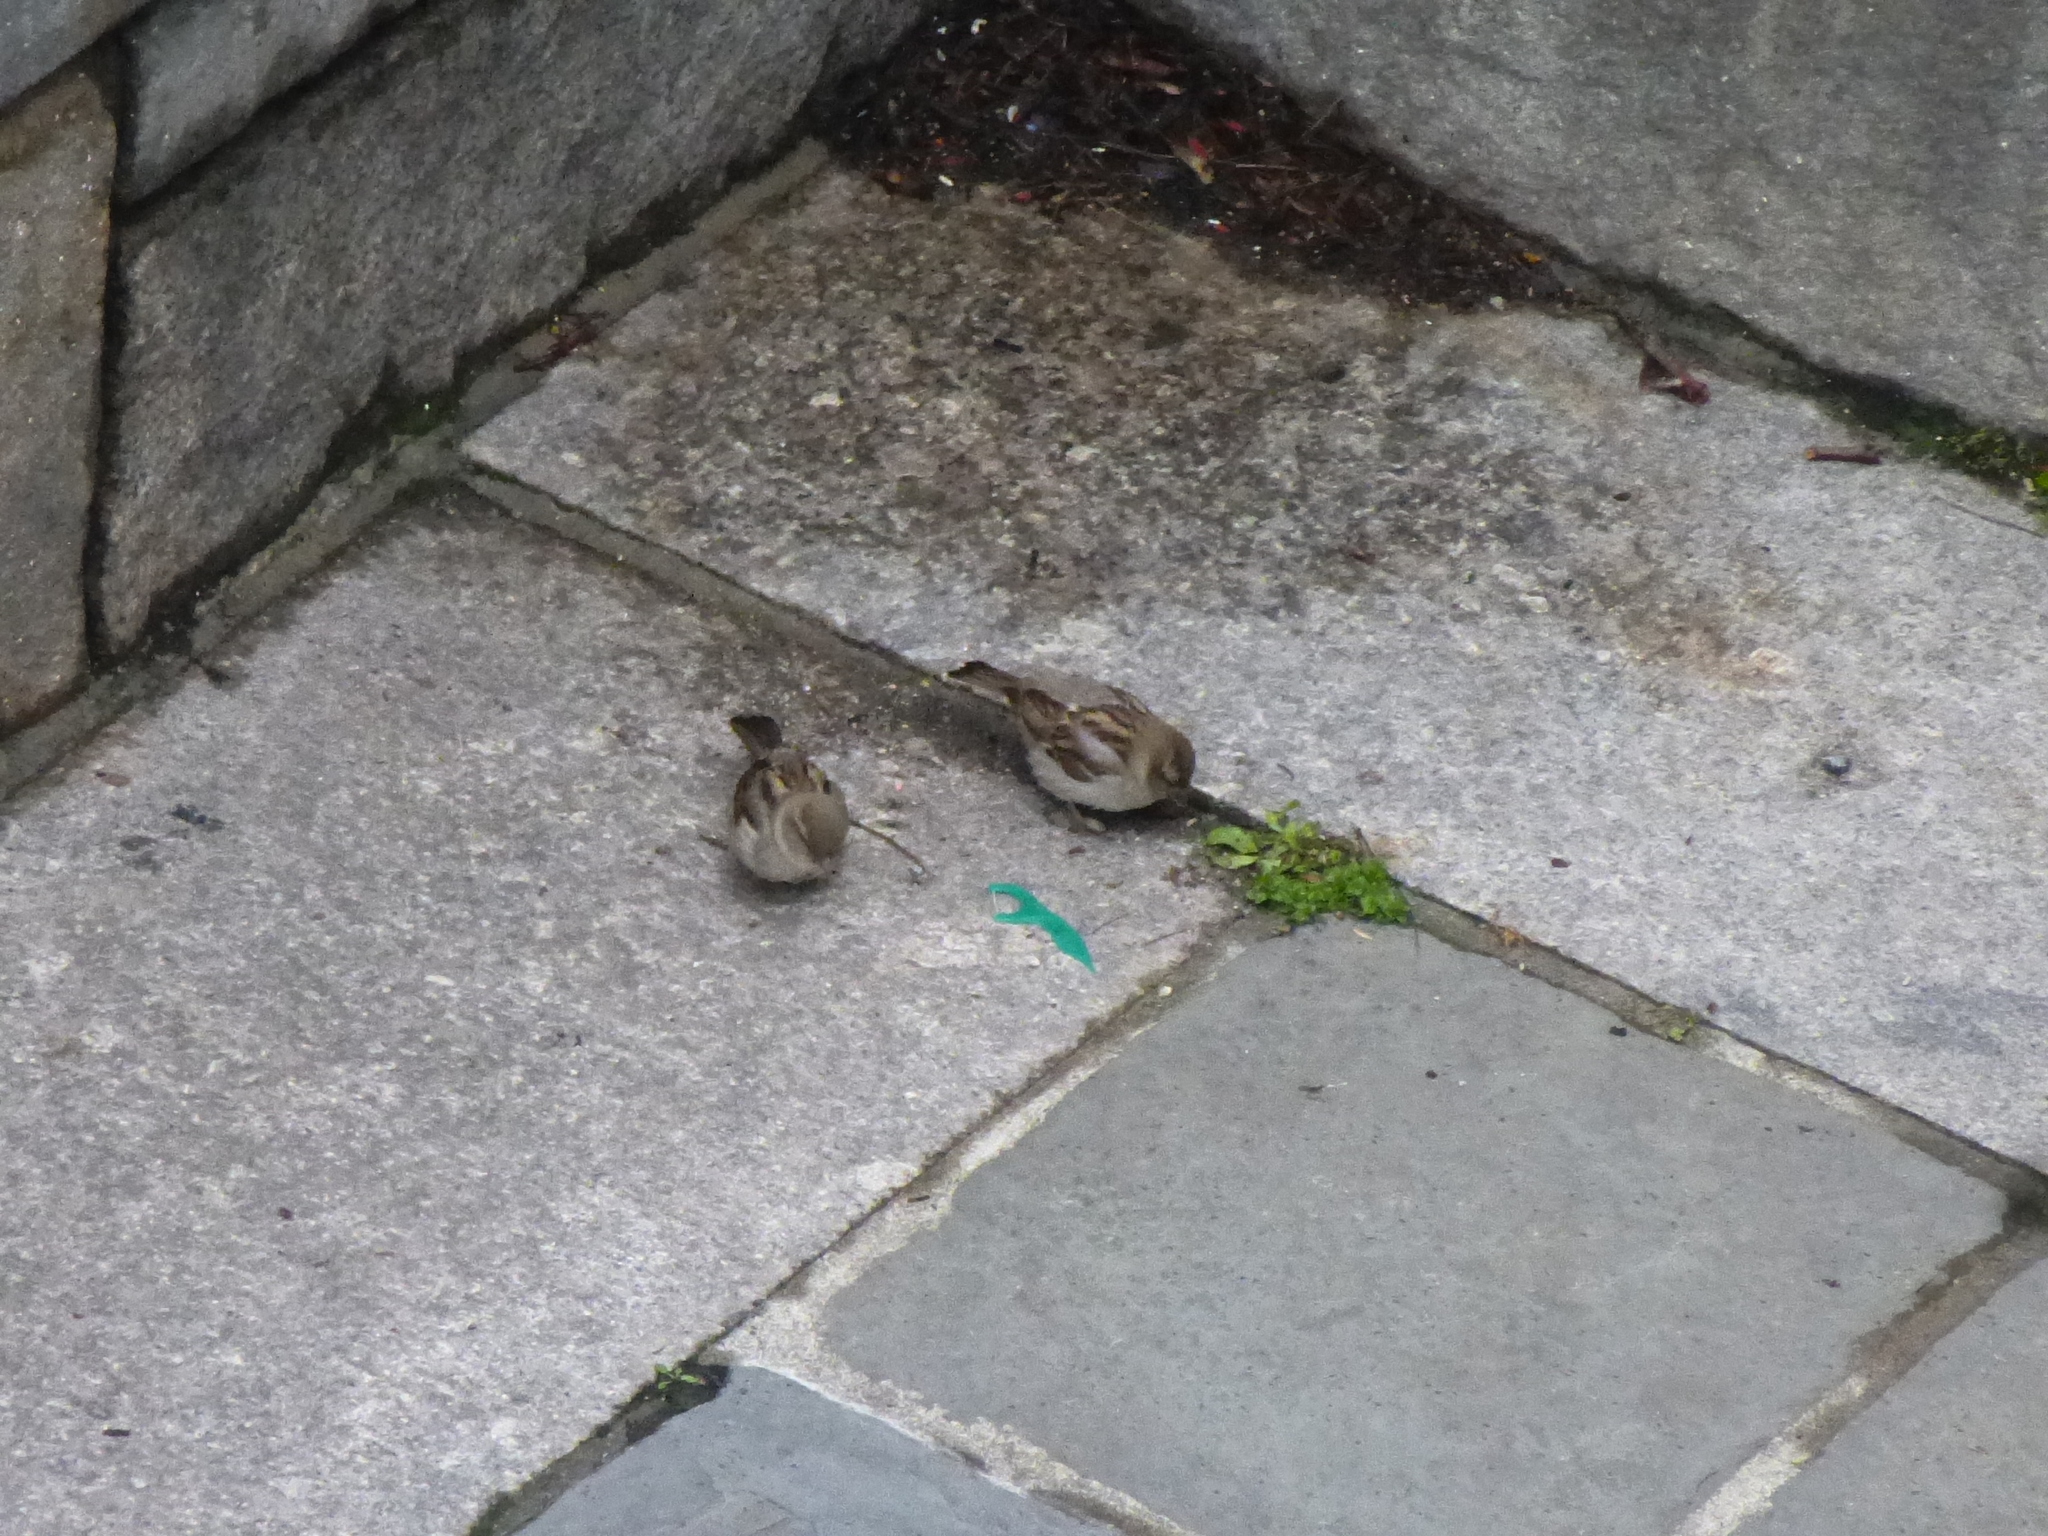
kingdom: Animalia
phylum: Chordata
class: Aves
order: Passeriformes
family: Passeridae
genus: Passer
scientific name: Passer domesticus
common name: House sparrow
